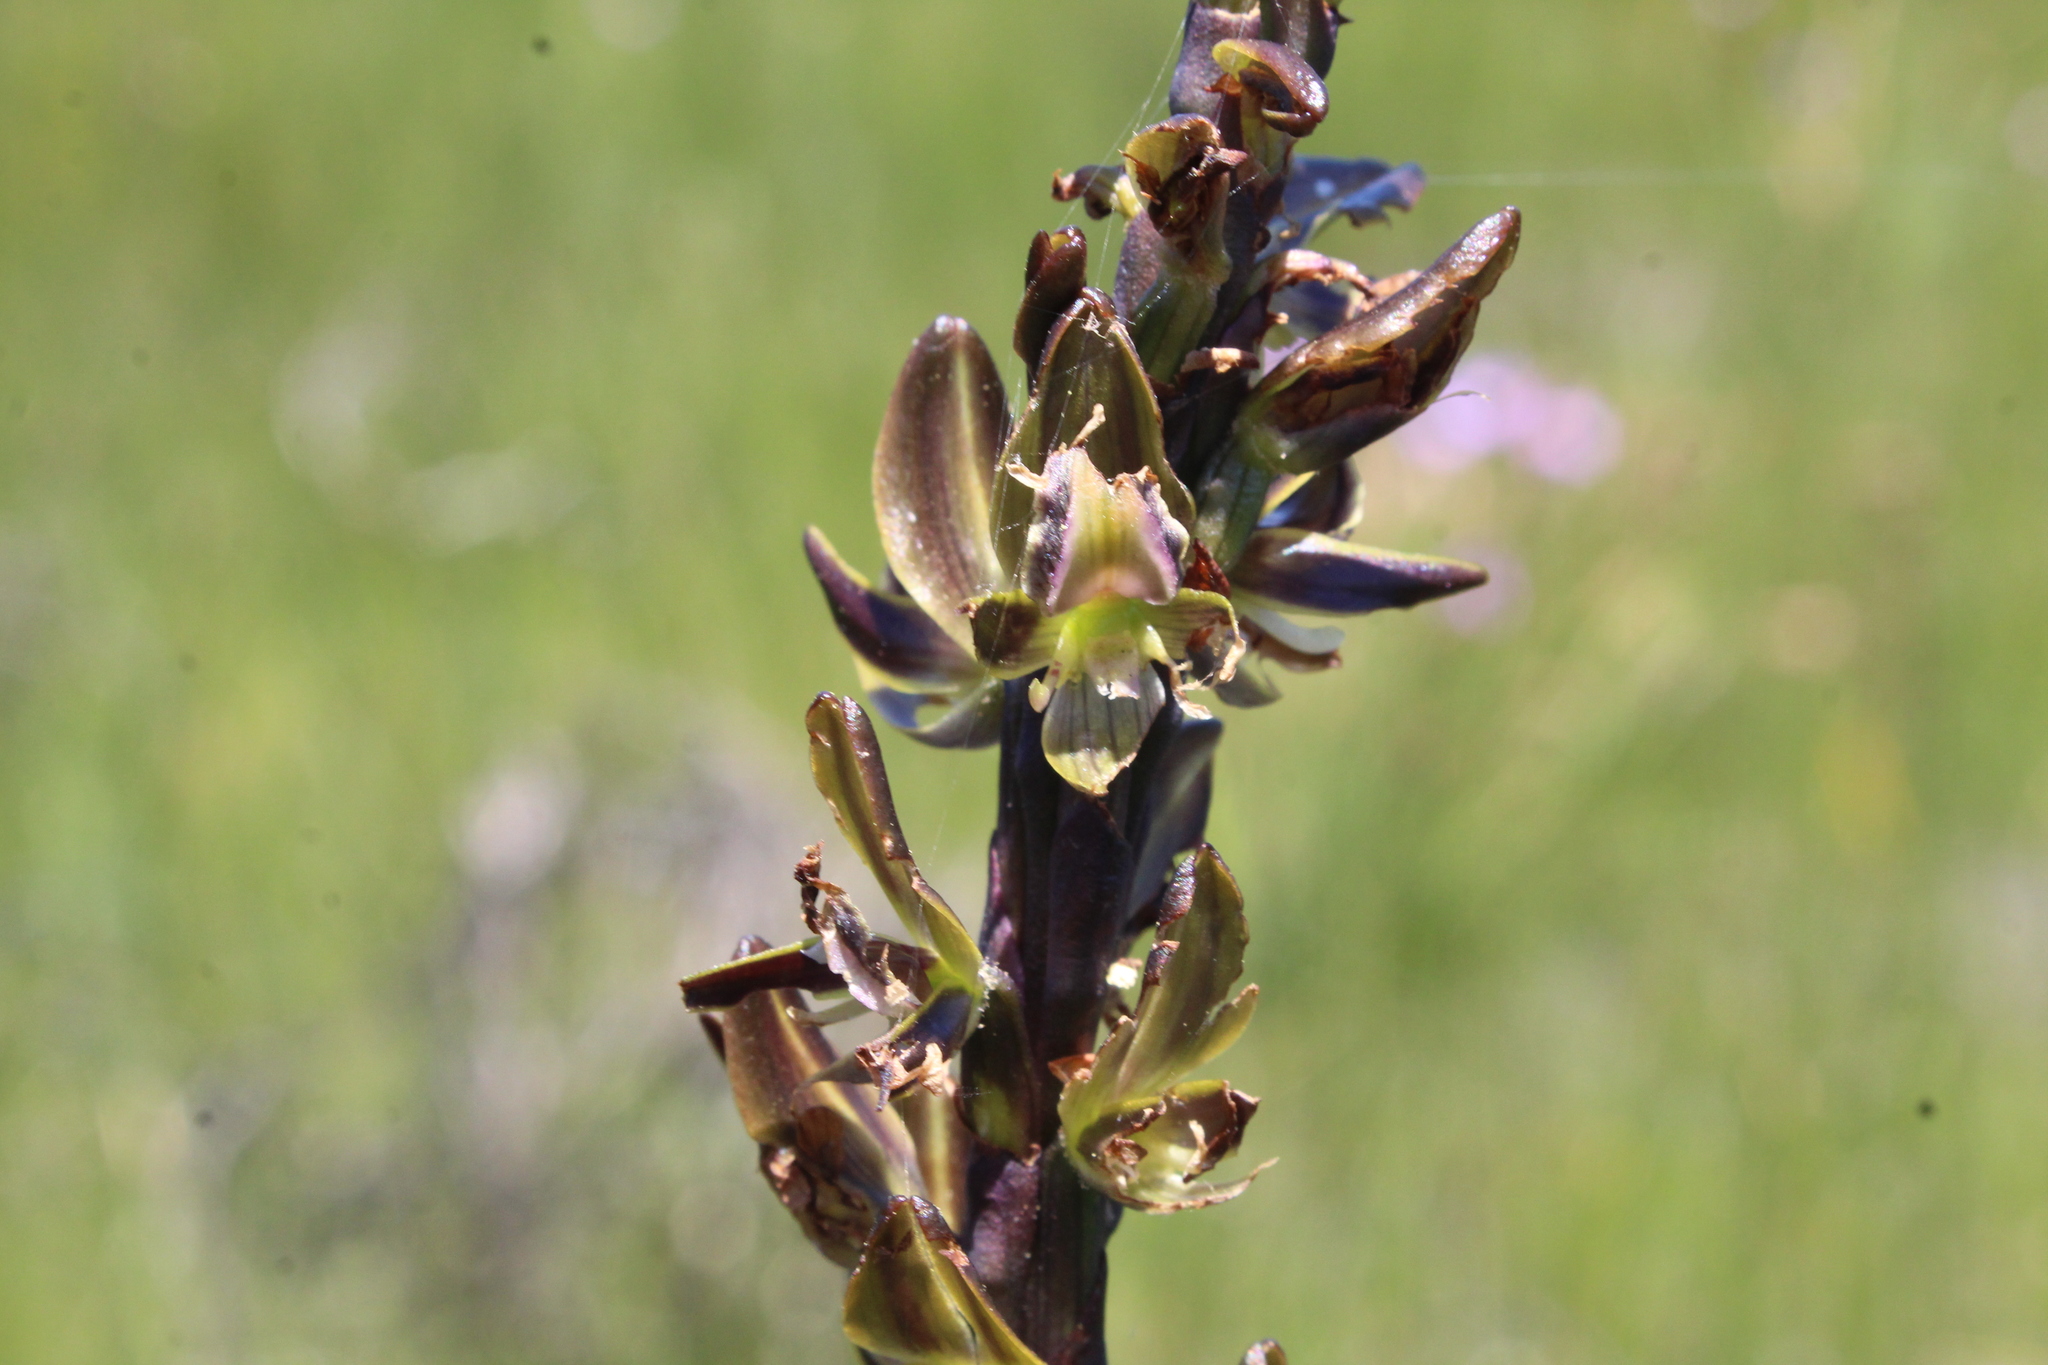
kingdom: Plantae
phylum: Tracheophyta
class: Liliopsida
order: Asparagales
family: Orchidaceae
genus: Prasophyllum
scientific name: Prasophyllum regium
